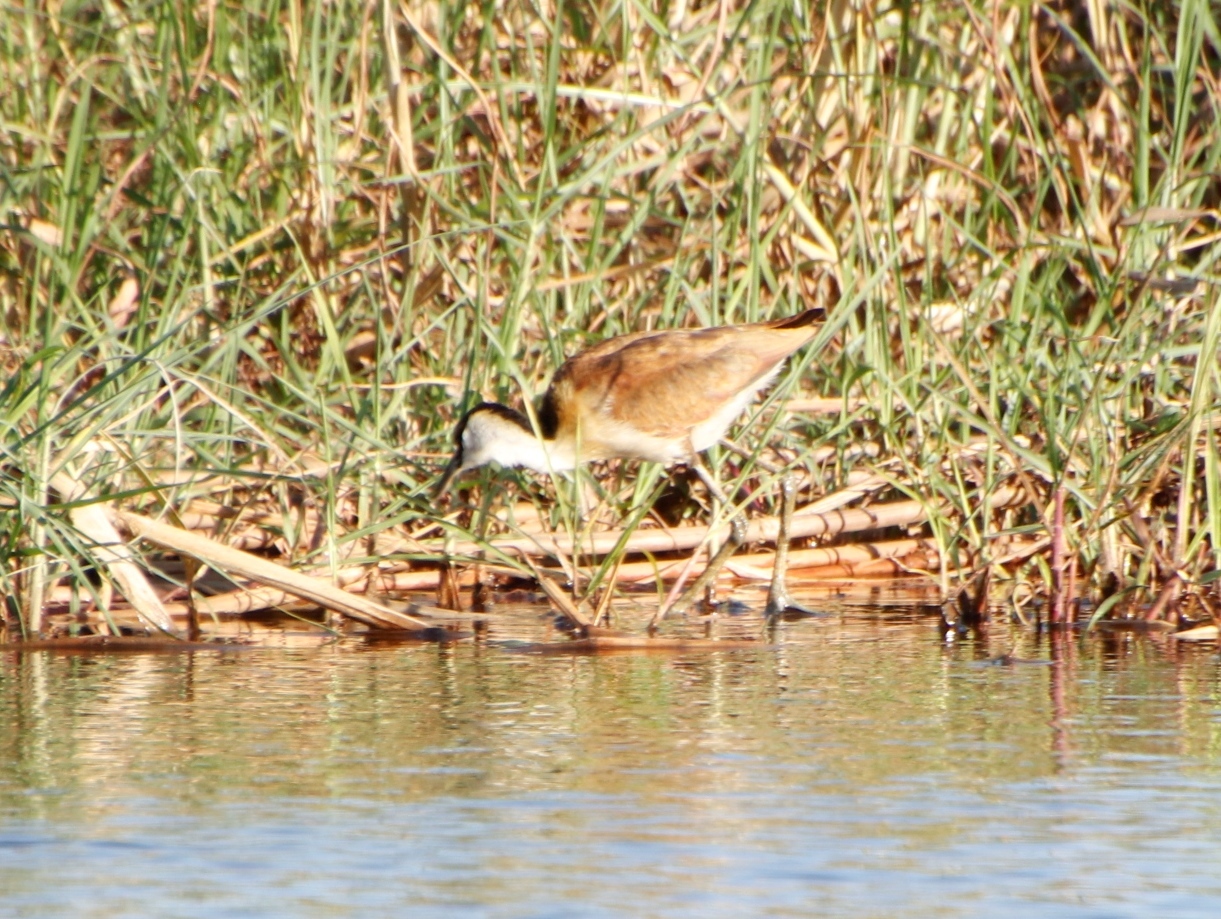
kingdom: Animalia
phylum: Chordata
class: Aves
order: Charadriiformes
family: Jacanidae
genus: Actophilornis
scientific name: Actophilornis africanus
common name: African jacana
